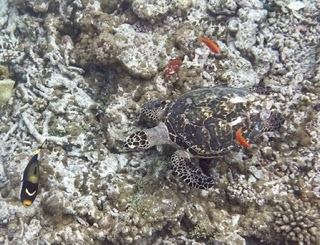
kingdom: Animalia
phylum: Chordata
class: Testudines
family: Cheloniidae
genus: Eretmochelys
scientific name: Eretmochelys imbricata
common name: Hawksbill turtle
